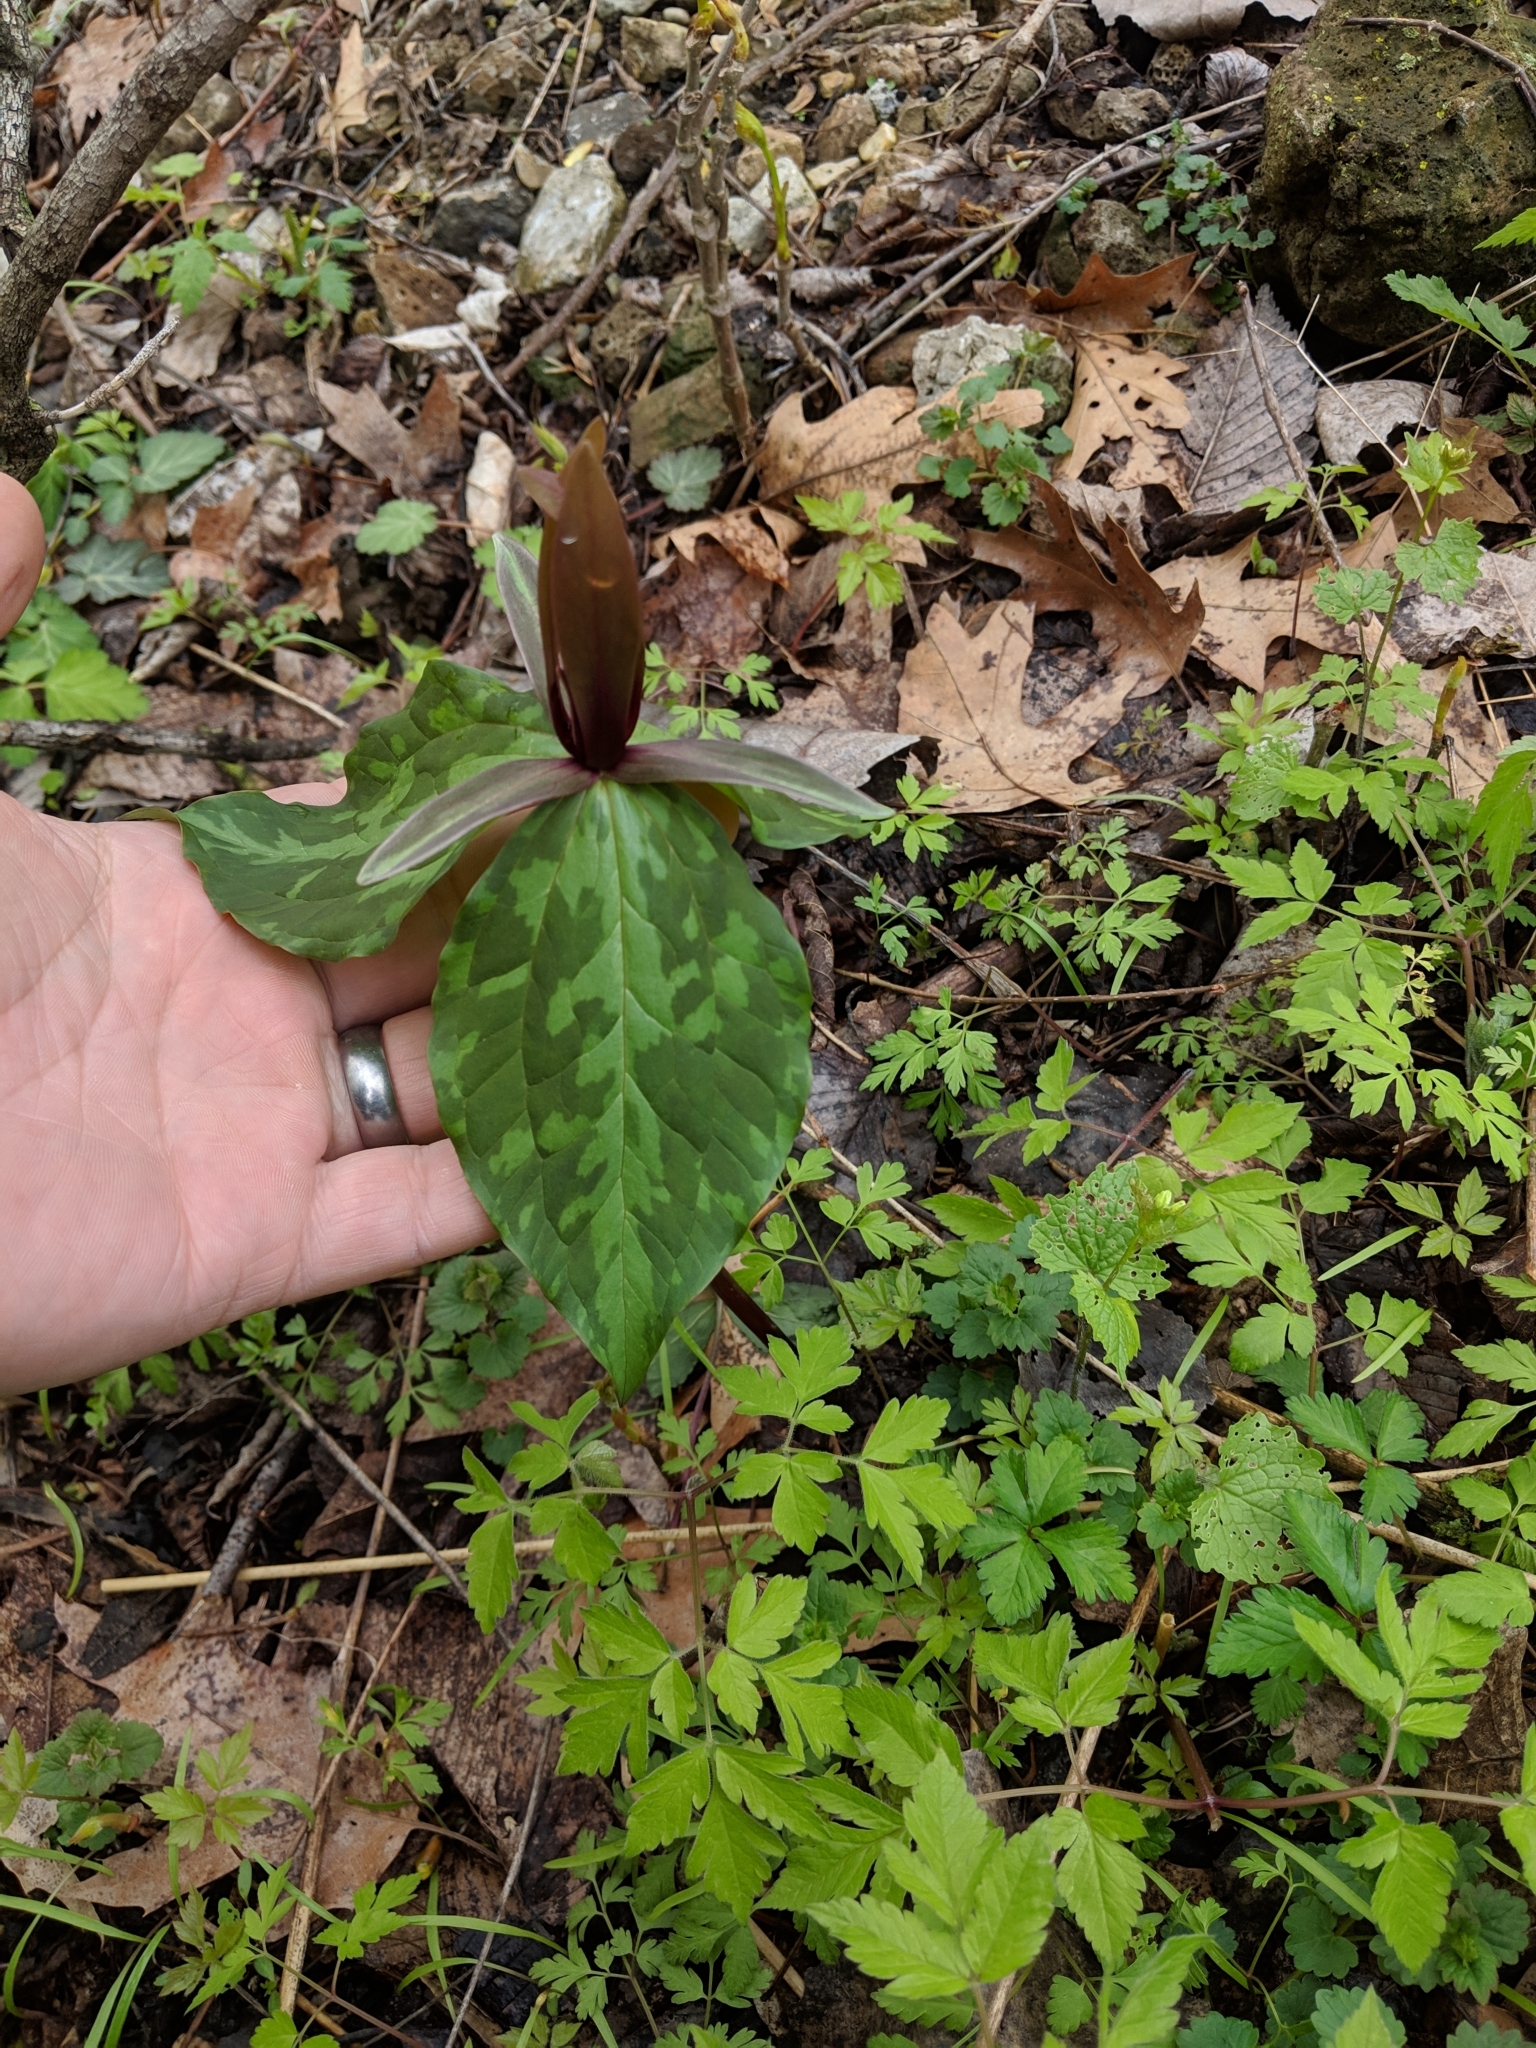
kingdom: Plantae
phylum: Tracheophyta
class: Liliopsida
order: Liliales
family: Melanthiaceae
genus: Trillium
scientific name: Trillium cuneatum
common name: Cuneate trillium
